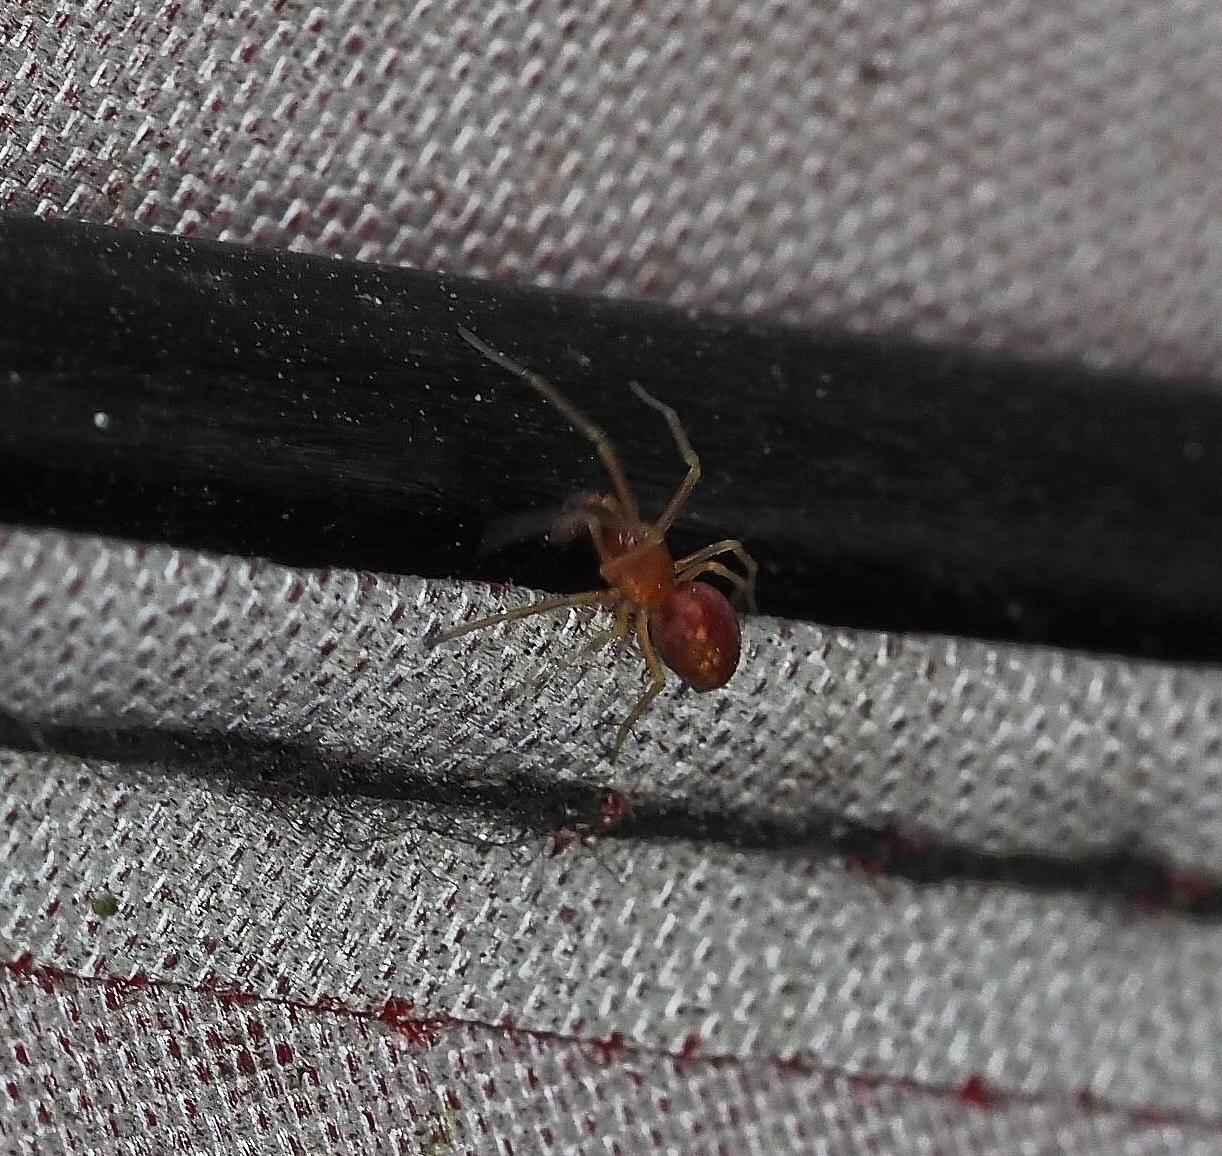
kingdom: Animalia
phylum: Arthropoda
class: Arachnida
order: Araneae
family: Dictynidae
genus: Nigma
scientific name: Nigma puella
